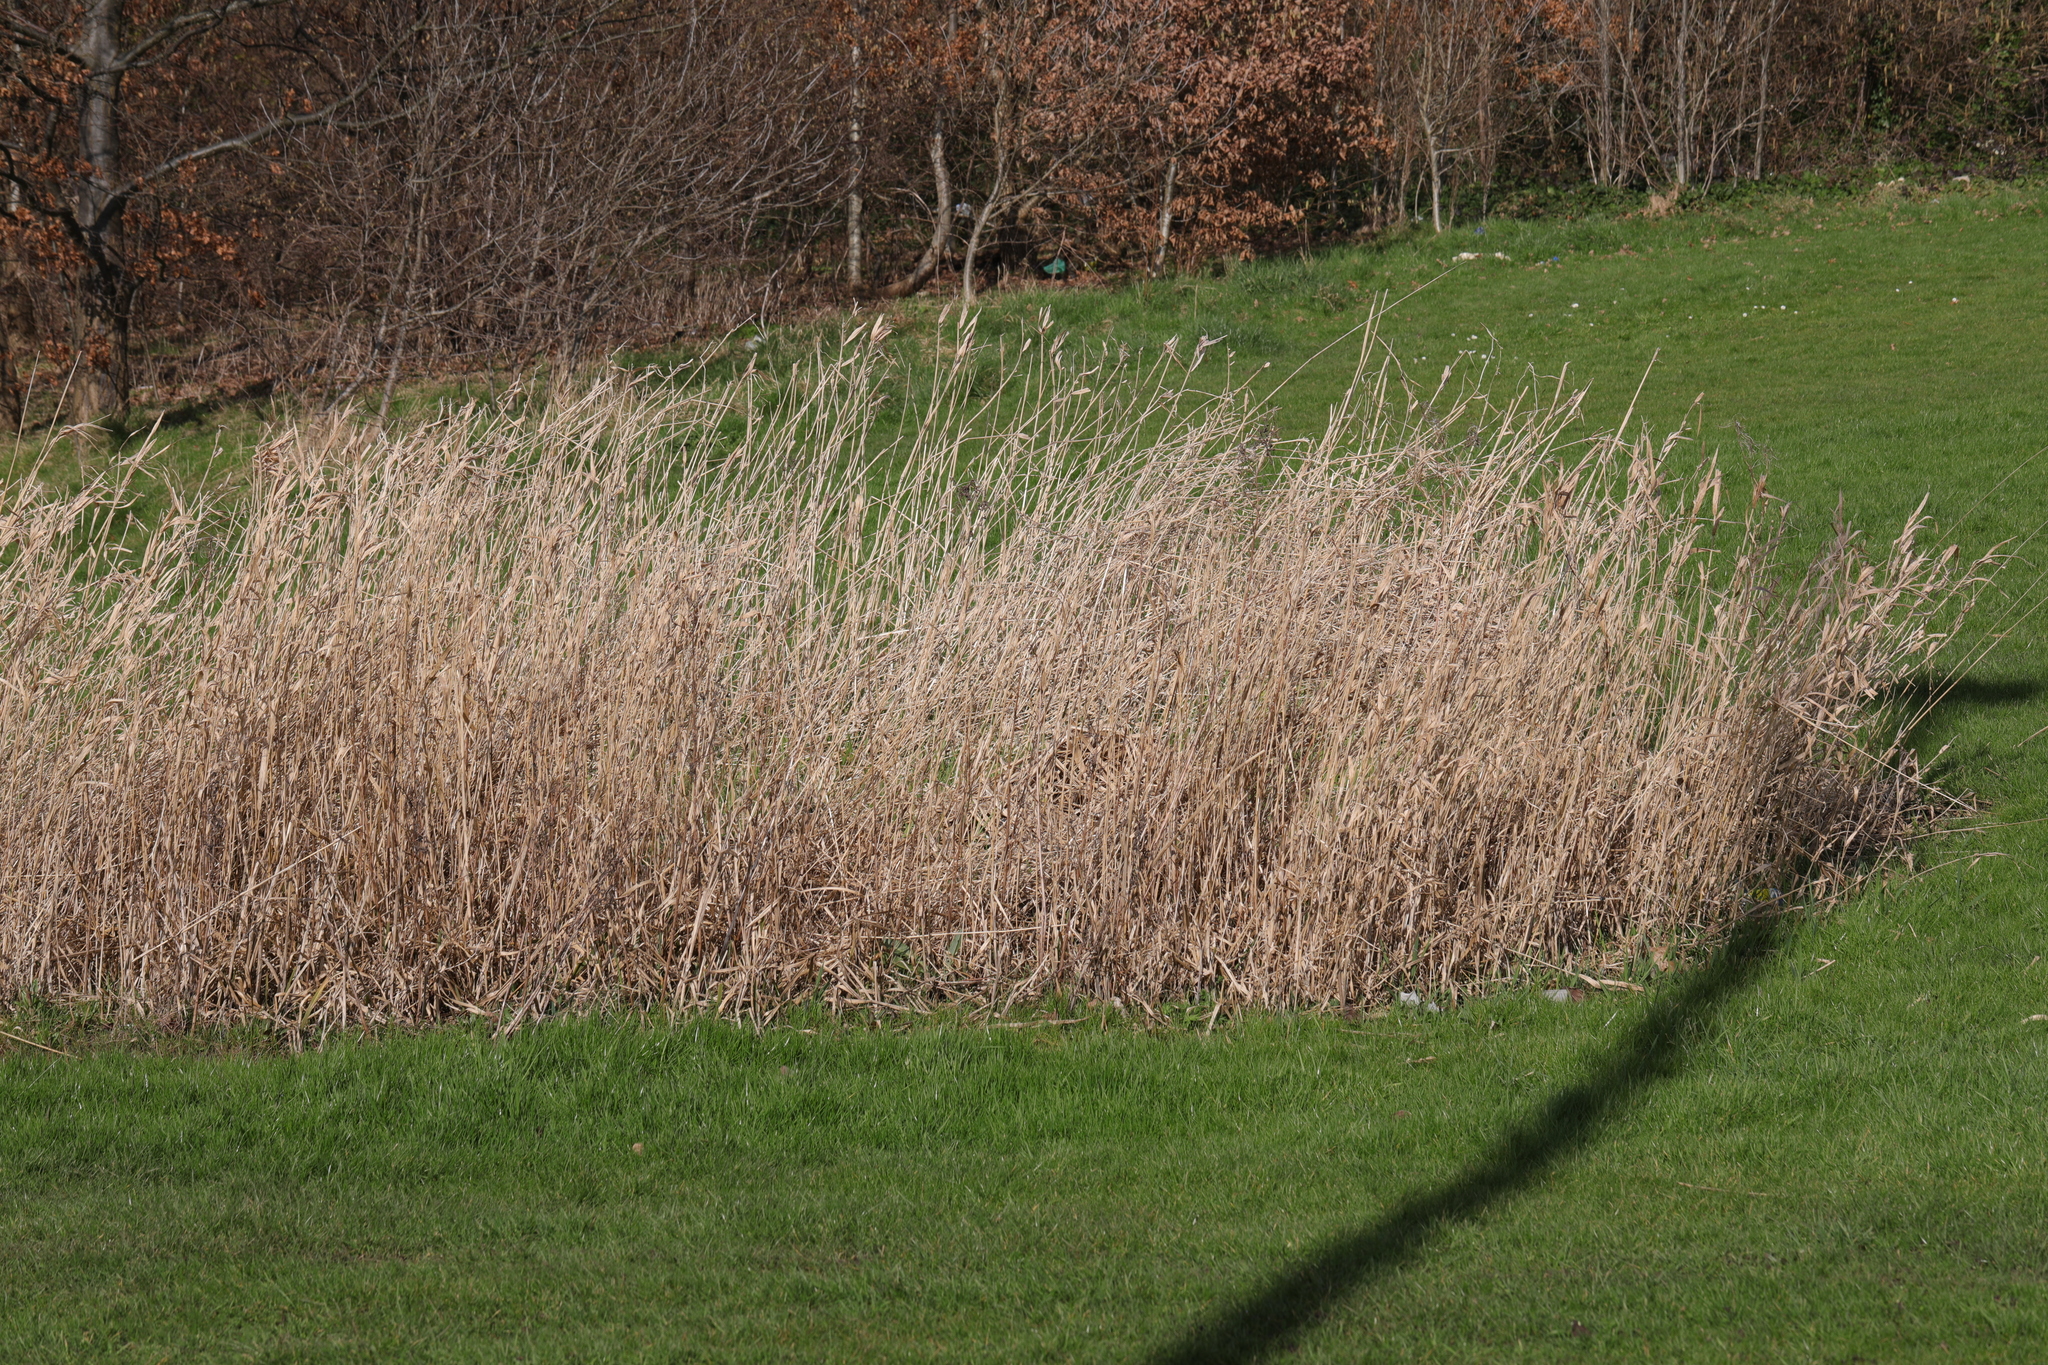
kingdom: Plantae
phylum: Tracheophyta
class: Liliopsida
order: Poales
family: Poaceae
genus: Phalaris
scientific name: Phalaris arundinacea
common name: Reed canary-grass
